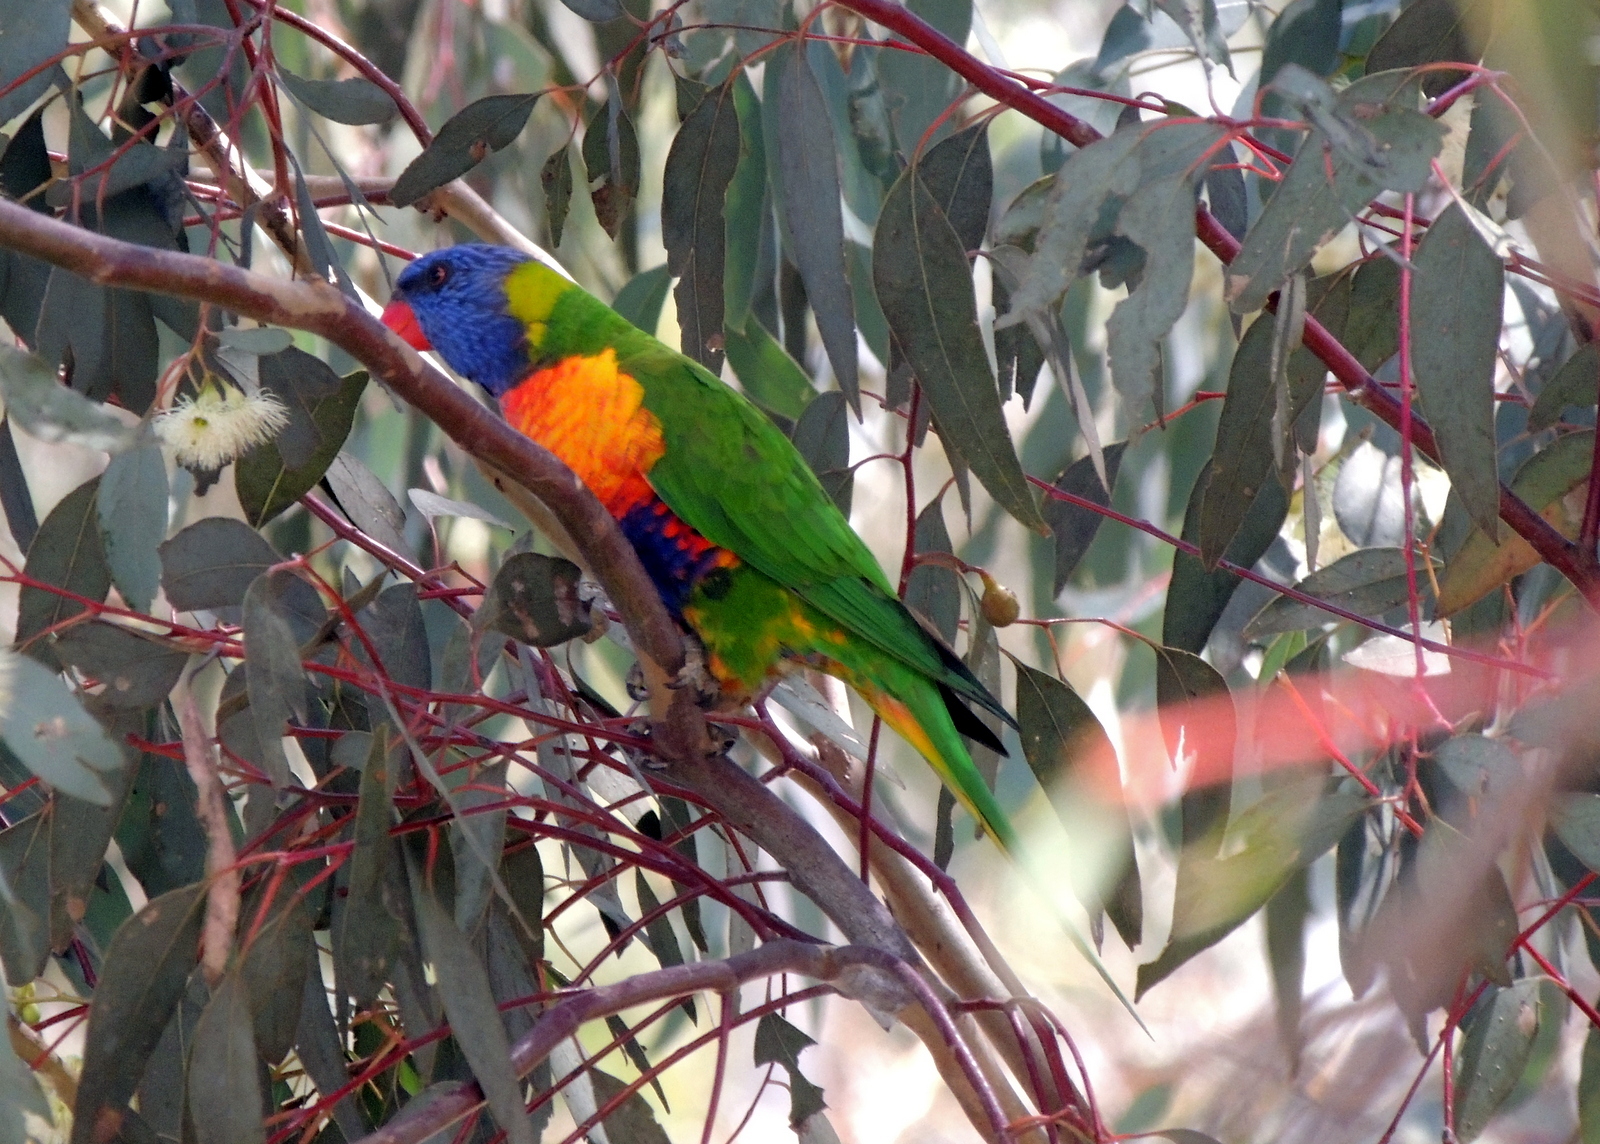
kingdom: Animalia
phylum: Chordata
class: Aves
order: Psittaciformes
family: Psittacidae
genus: Trichoglossus
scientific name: Trichoglossus haematodus
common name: Coconut lorikeet
